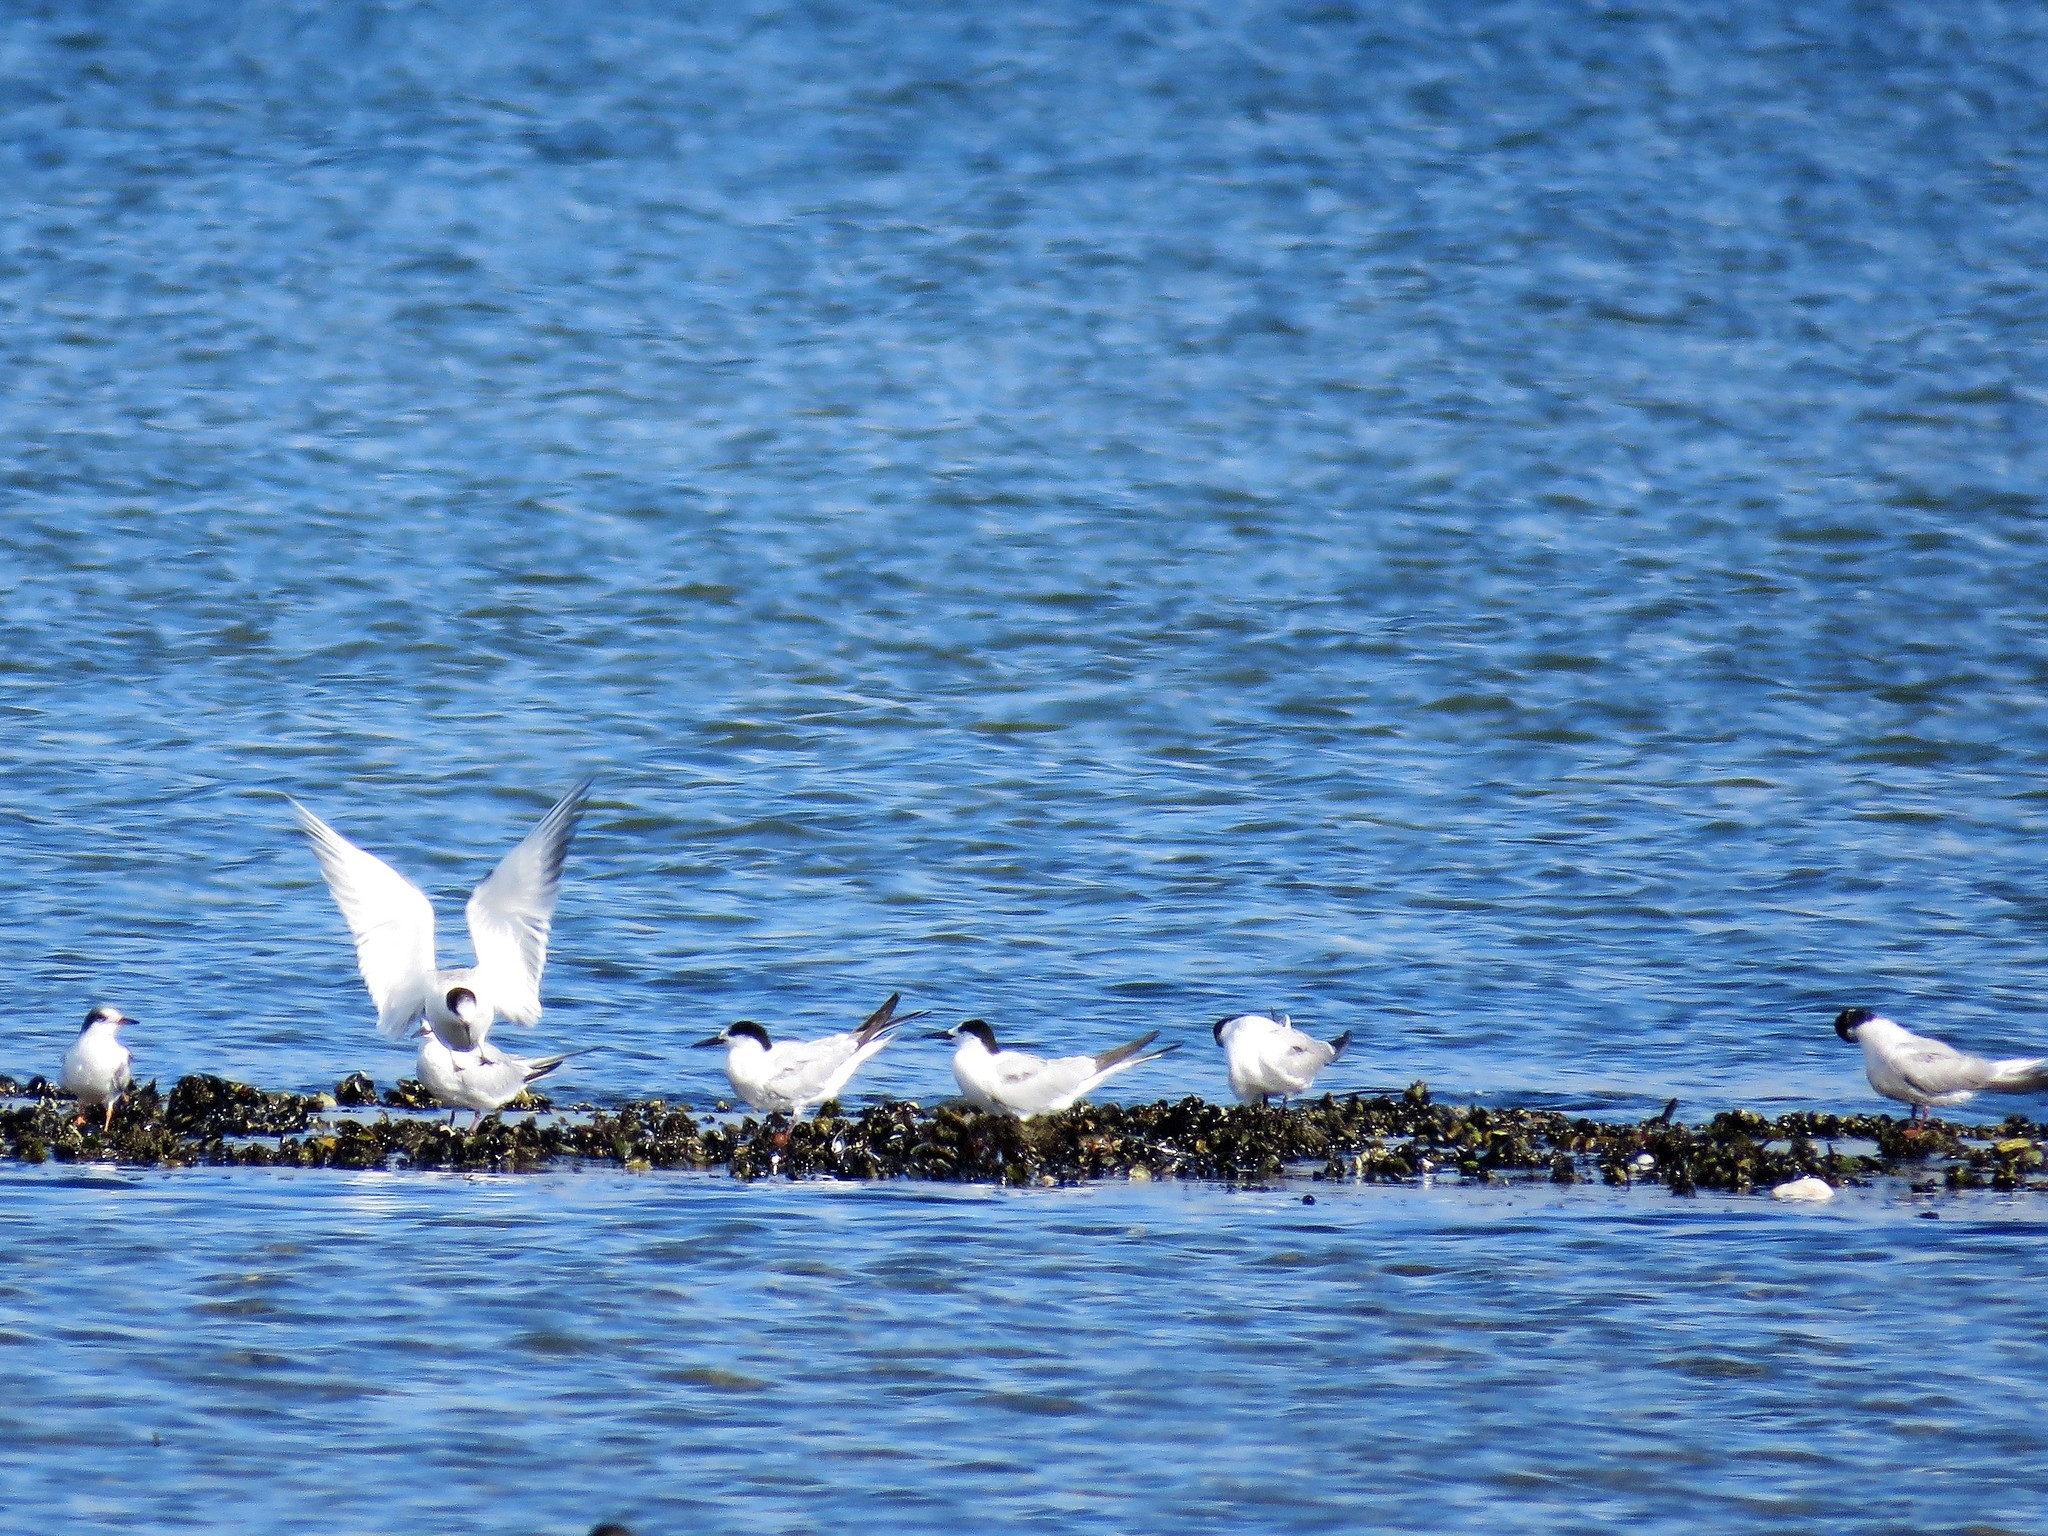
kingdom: Animalia
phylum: Chordata
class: Aves
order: Charadriiformes
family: Laridae
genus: Sterna
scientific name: Sterna hirundo
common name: Common tern
